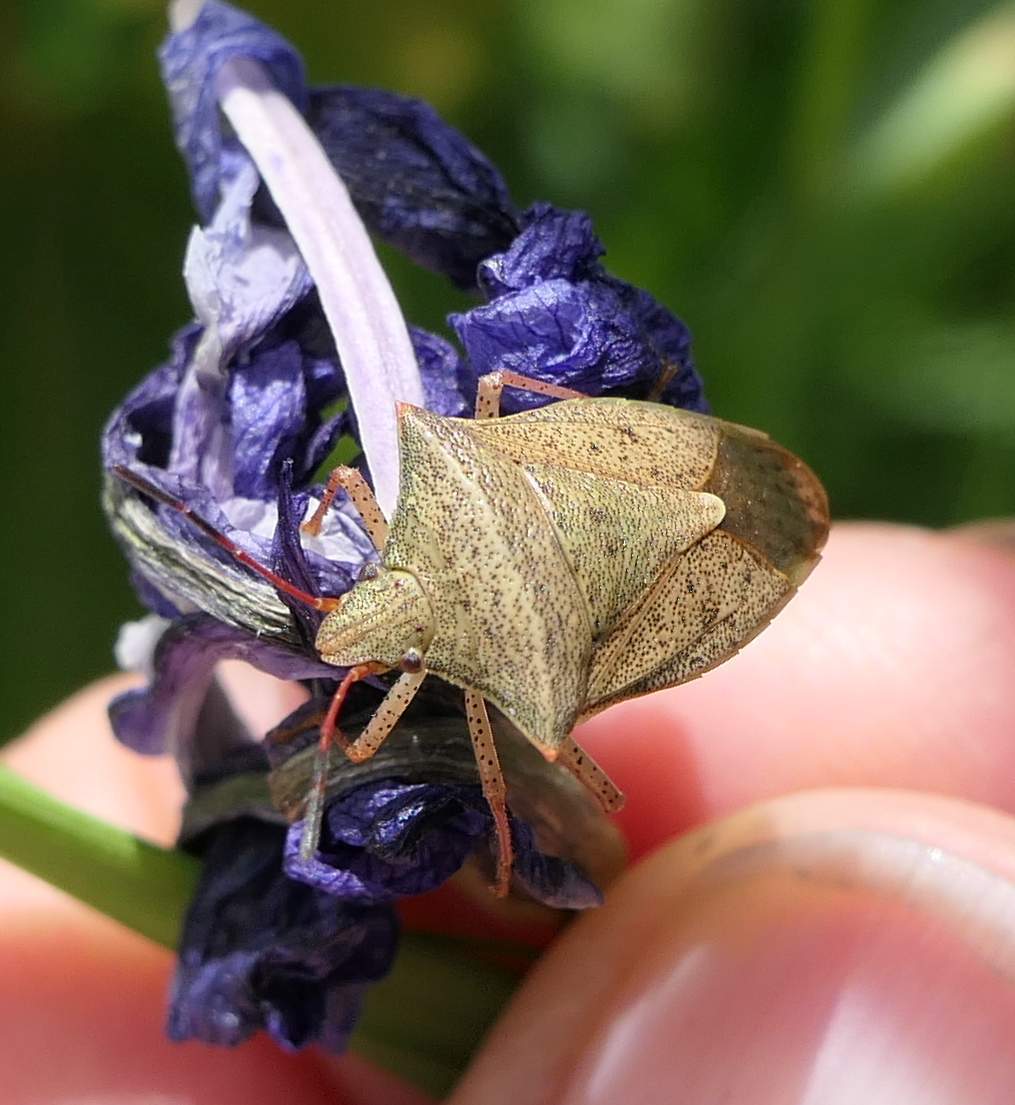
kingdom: Animalia
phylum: Arthropoda
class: Insecta
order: Hemiptera
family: Pentatomidae
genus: Euschistus
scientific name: Euschistus ictericus
